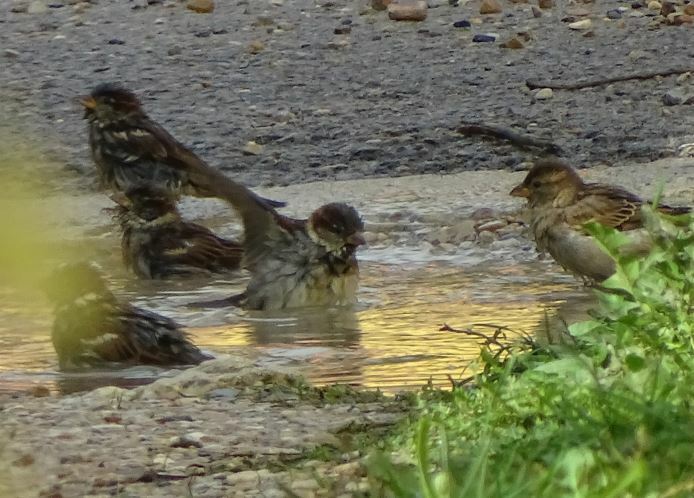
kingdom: Animalia
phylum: Chordata
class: Aves
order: Passeriformes
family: Passeridae
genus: Passer
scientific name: Passer domesticus
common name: House sparrow
